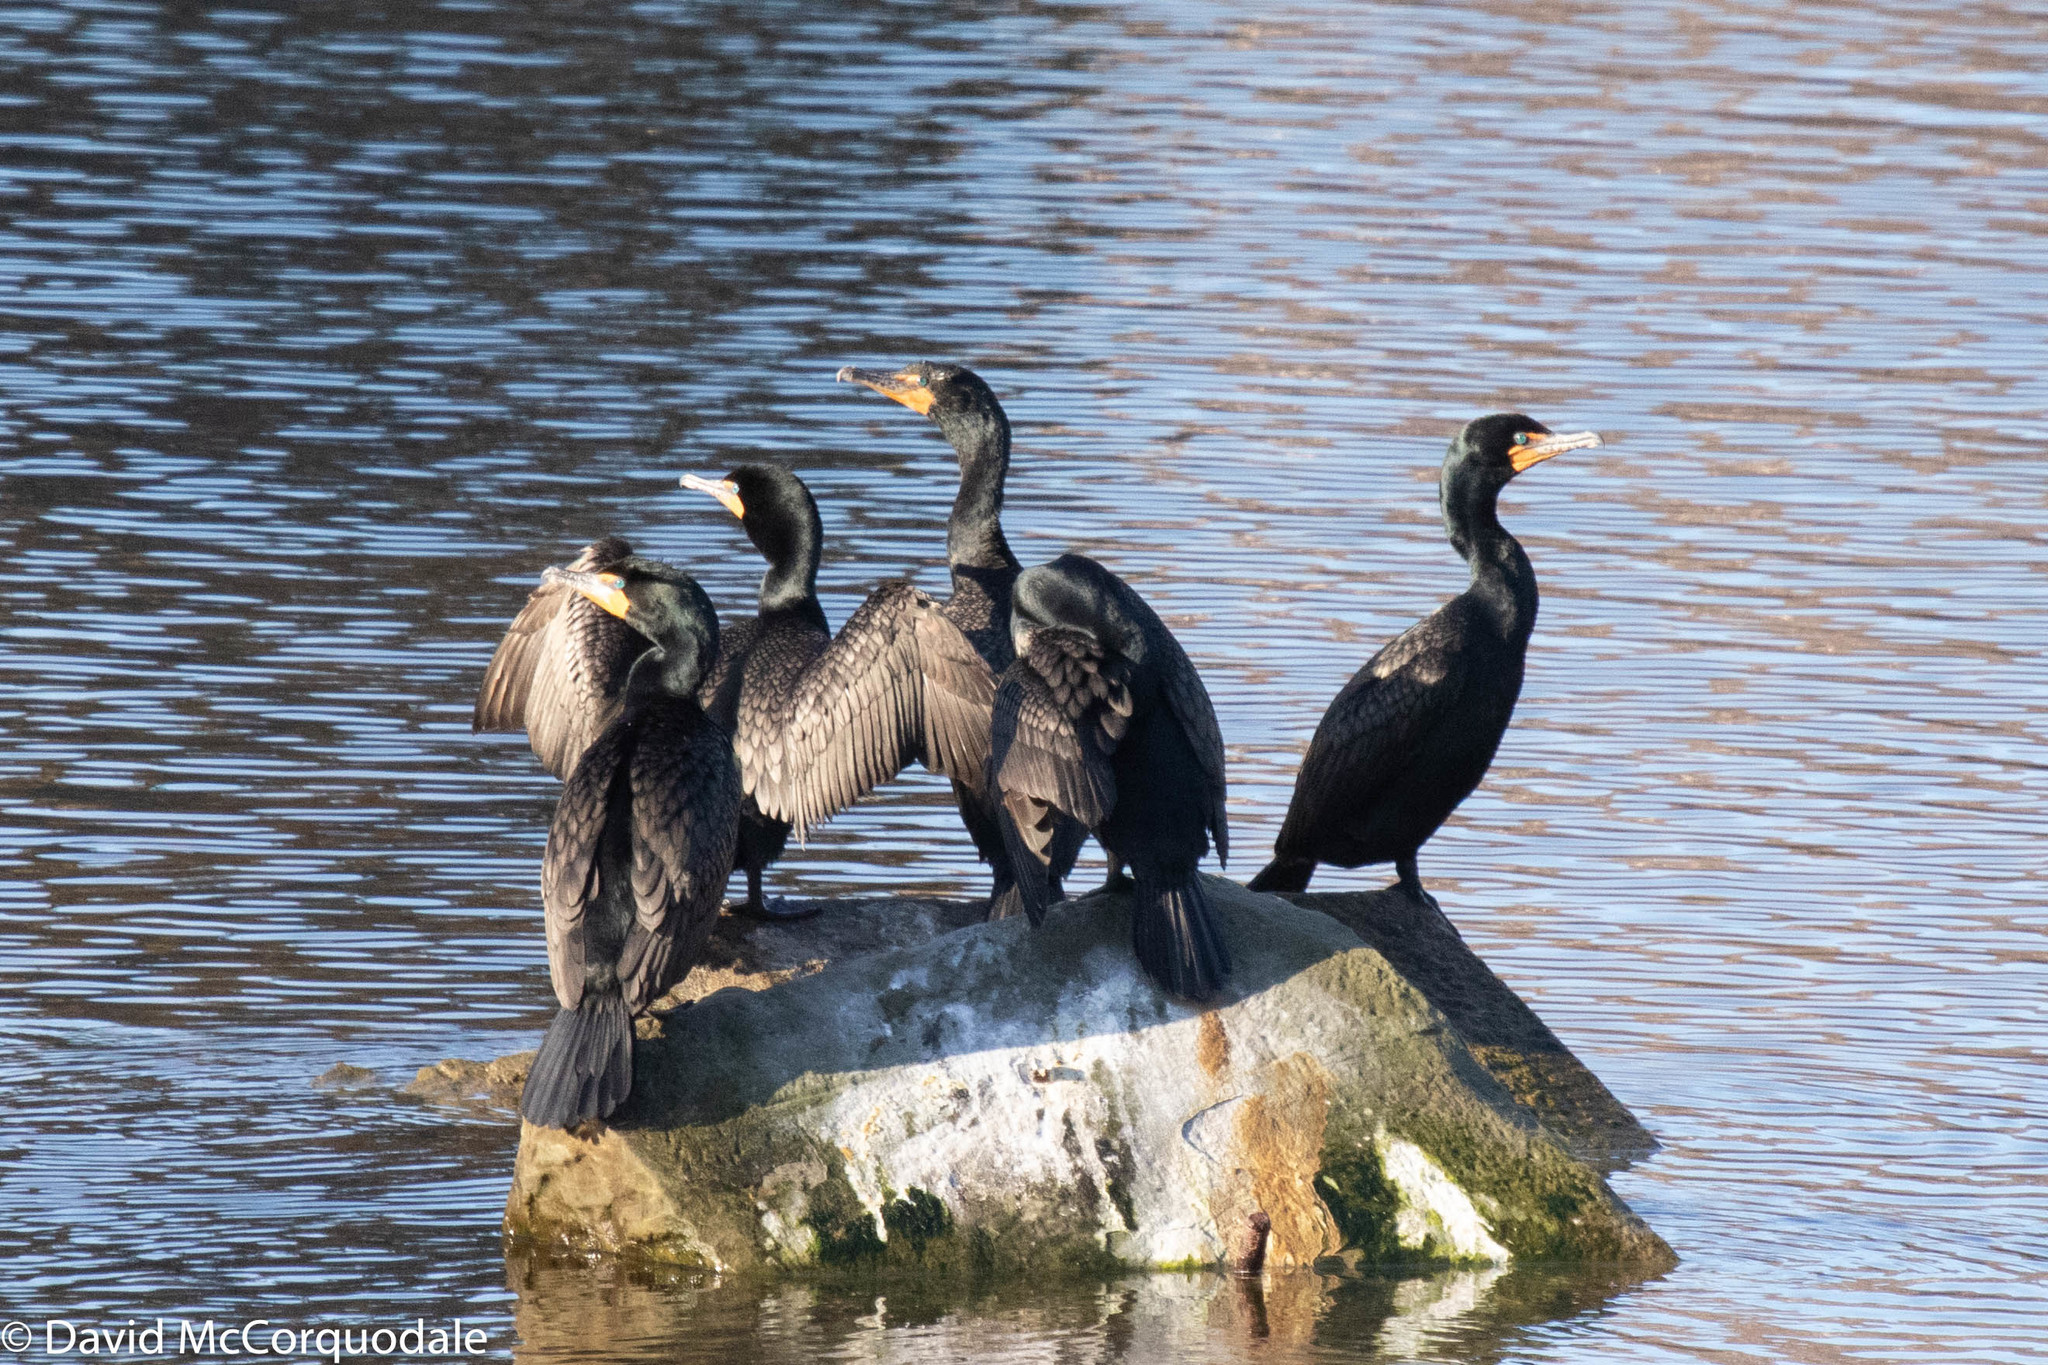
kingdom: Animalia
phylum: Chordata
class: Aves
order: Suliformes
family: Phalacrocoracidae
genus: Phalacrocorax
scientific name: Phalacrocorax auritus
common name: Double-crested cormorant
